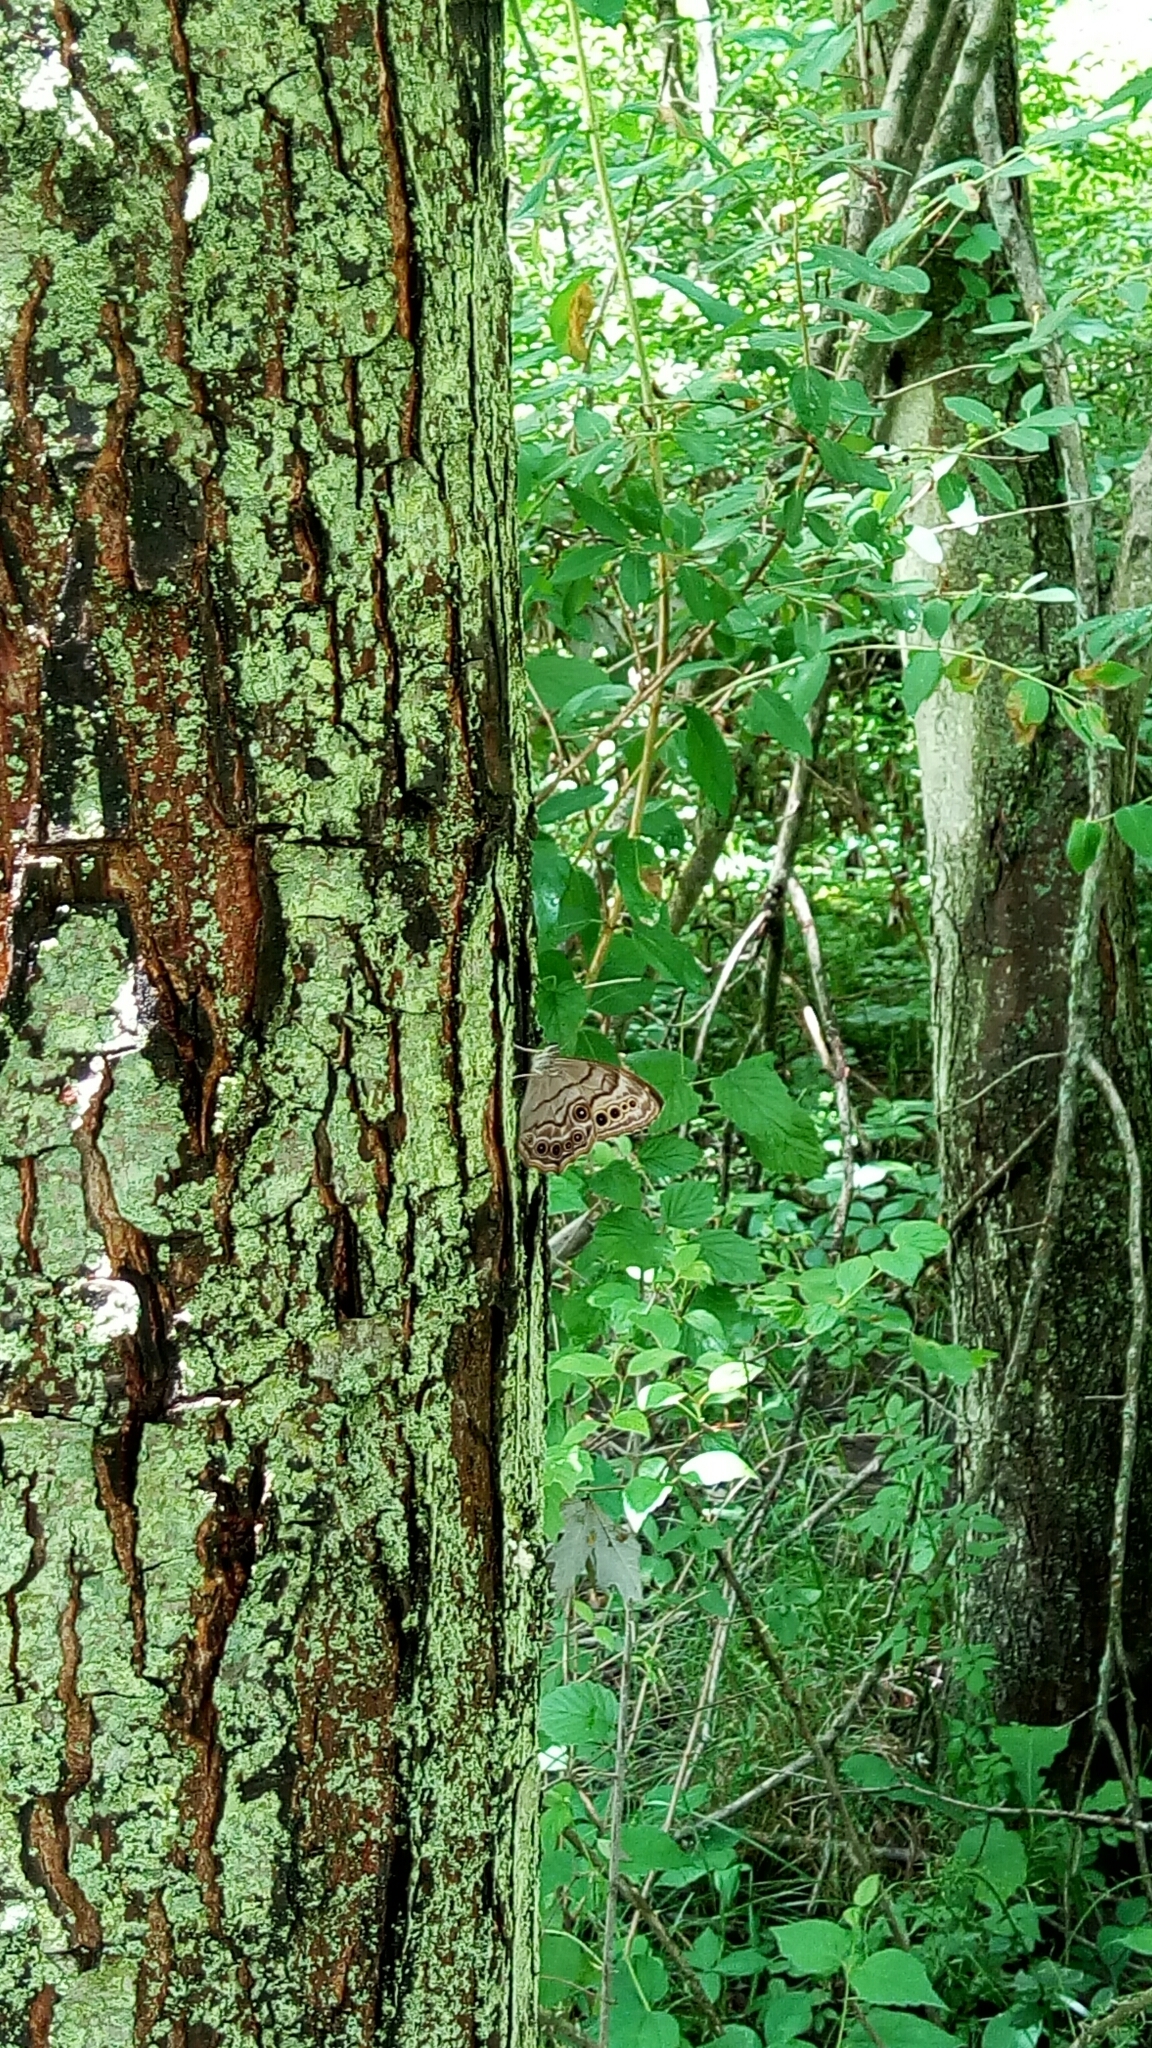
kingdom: Animalia
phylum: Arthropoda
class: Insecta
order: Lepidoptera
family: Nymphalidae
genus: Lethe
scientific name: Lethe anthedon
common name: Northern pearly-eye
